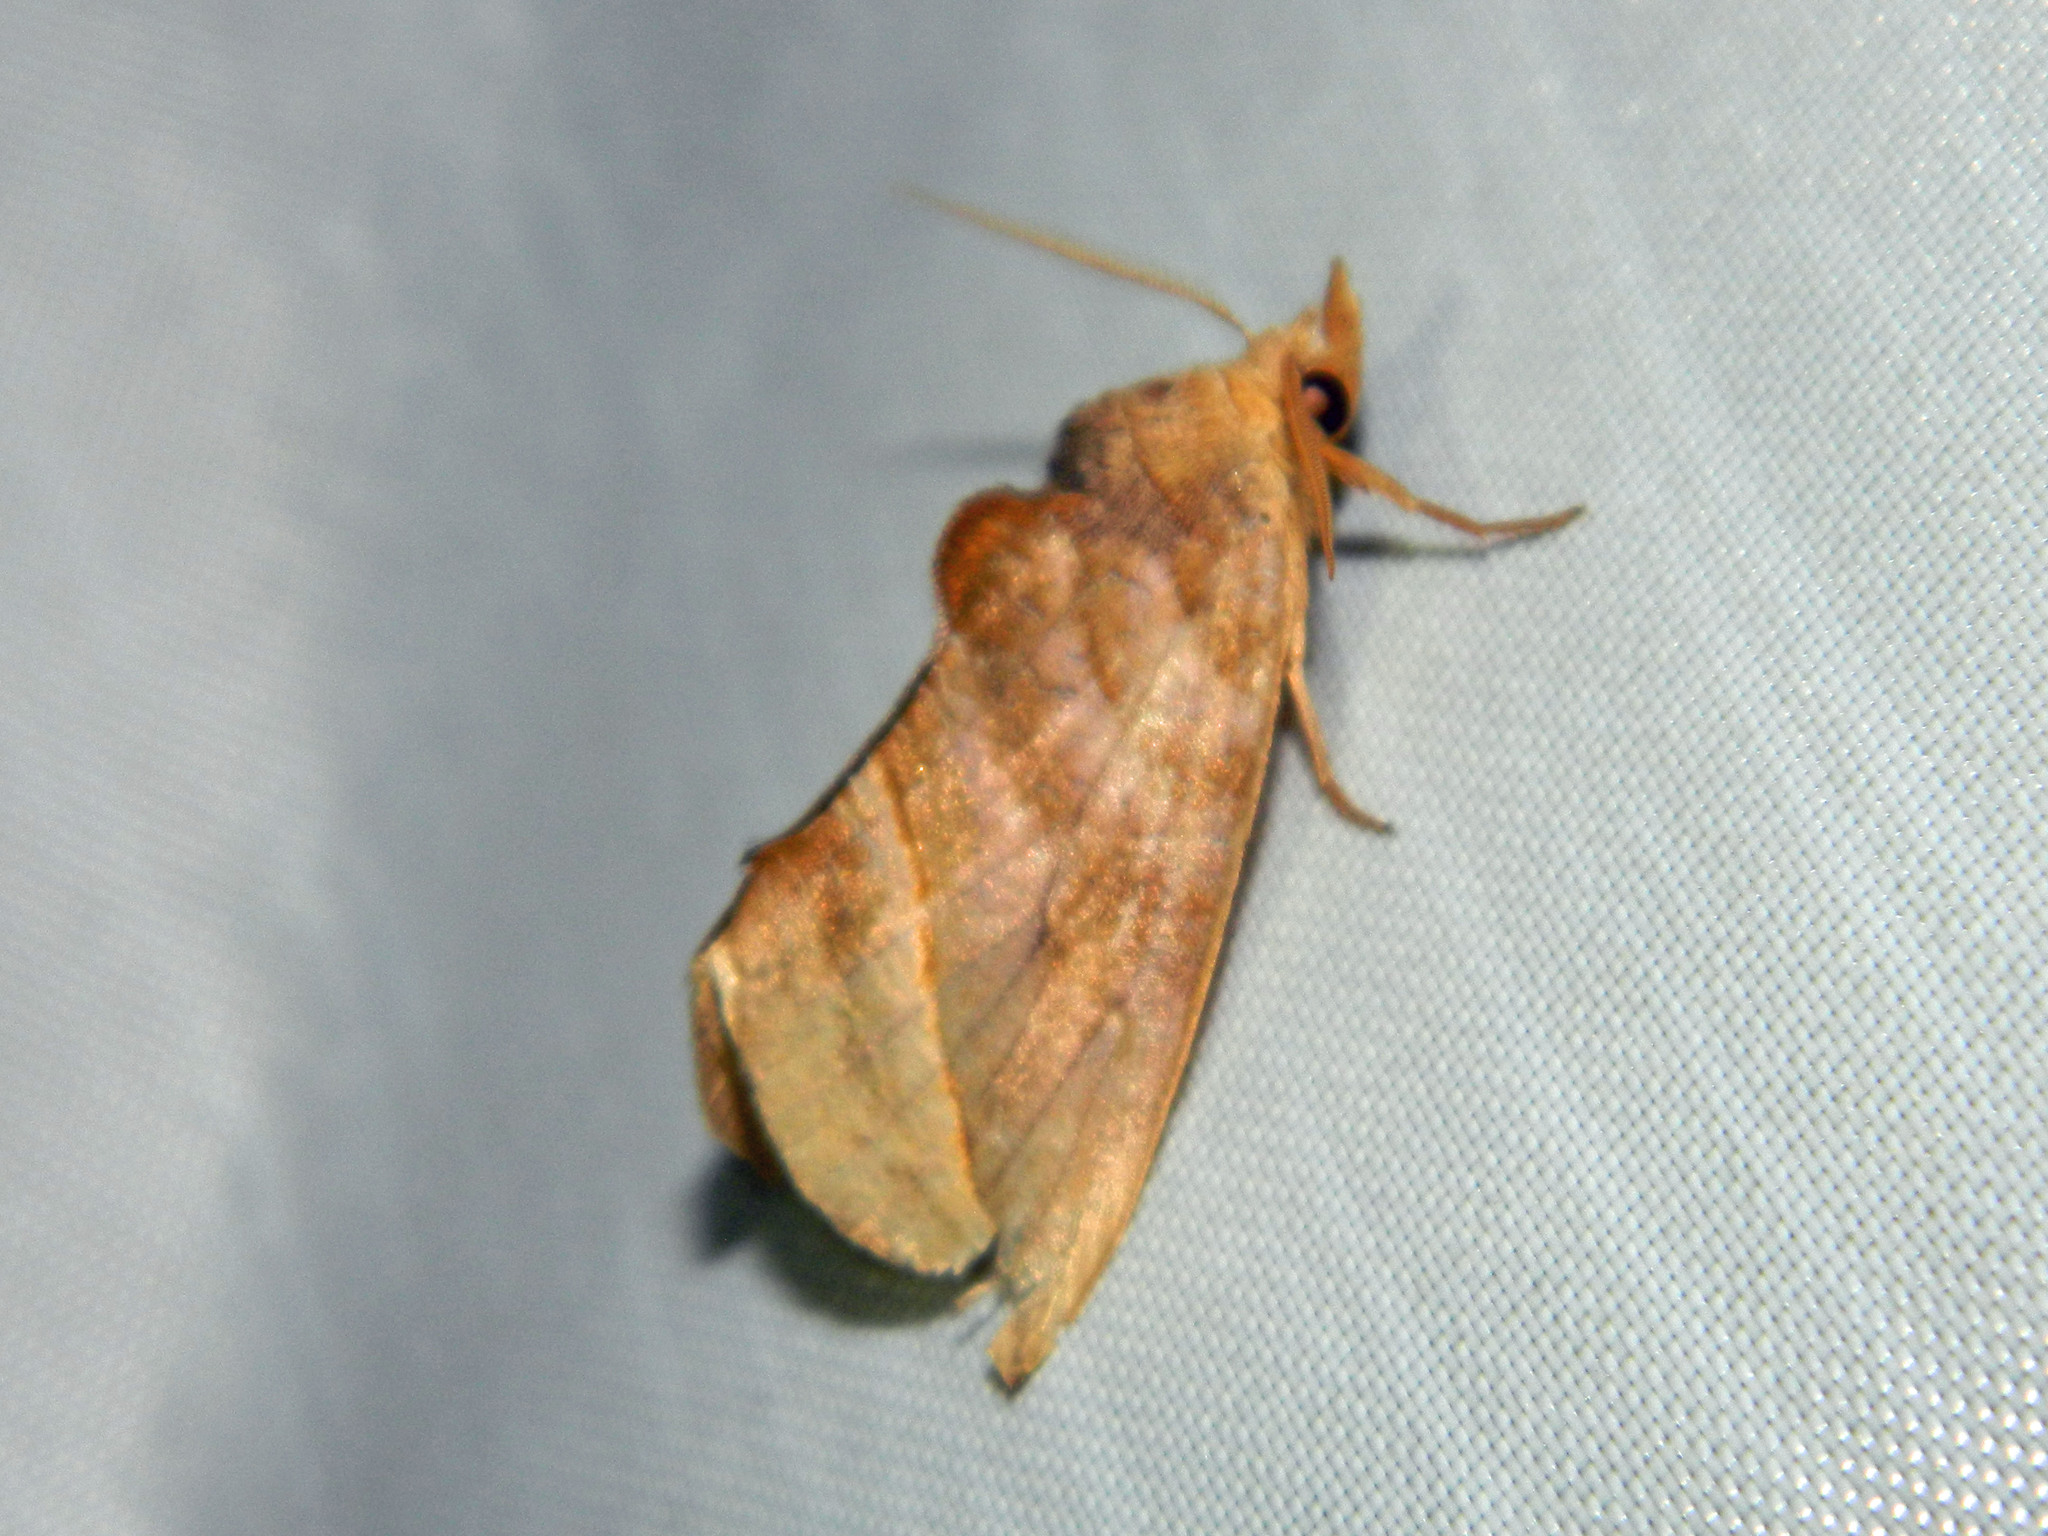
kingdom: Animalia
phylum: Arthropoda
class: Insecta
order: Lepidoptera
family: Erebidae
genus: Calyptra
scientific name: Calyptra canadensis
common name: Canadian owlet
